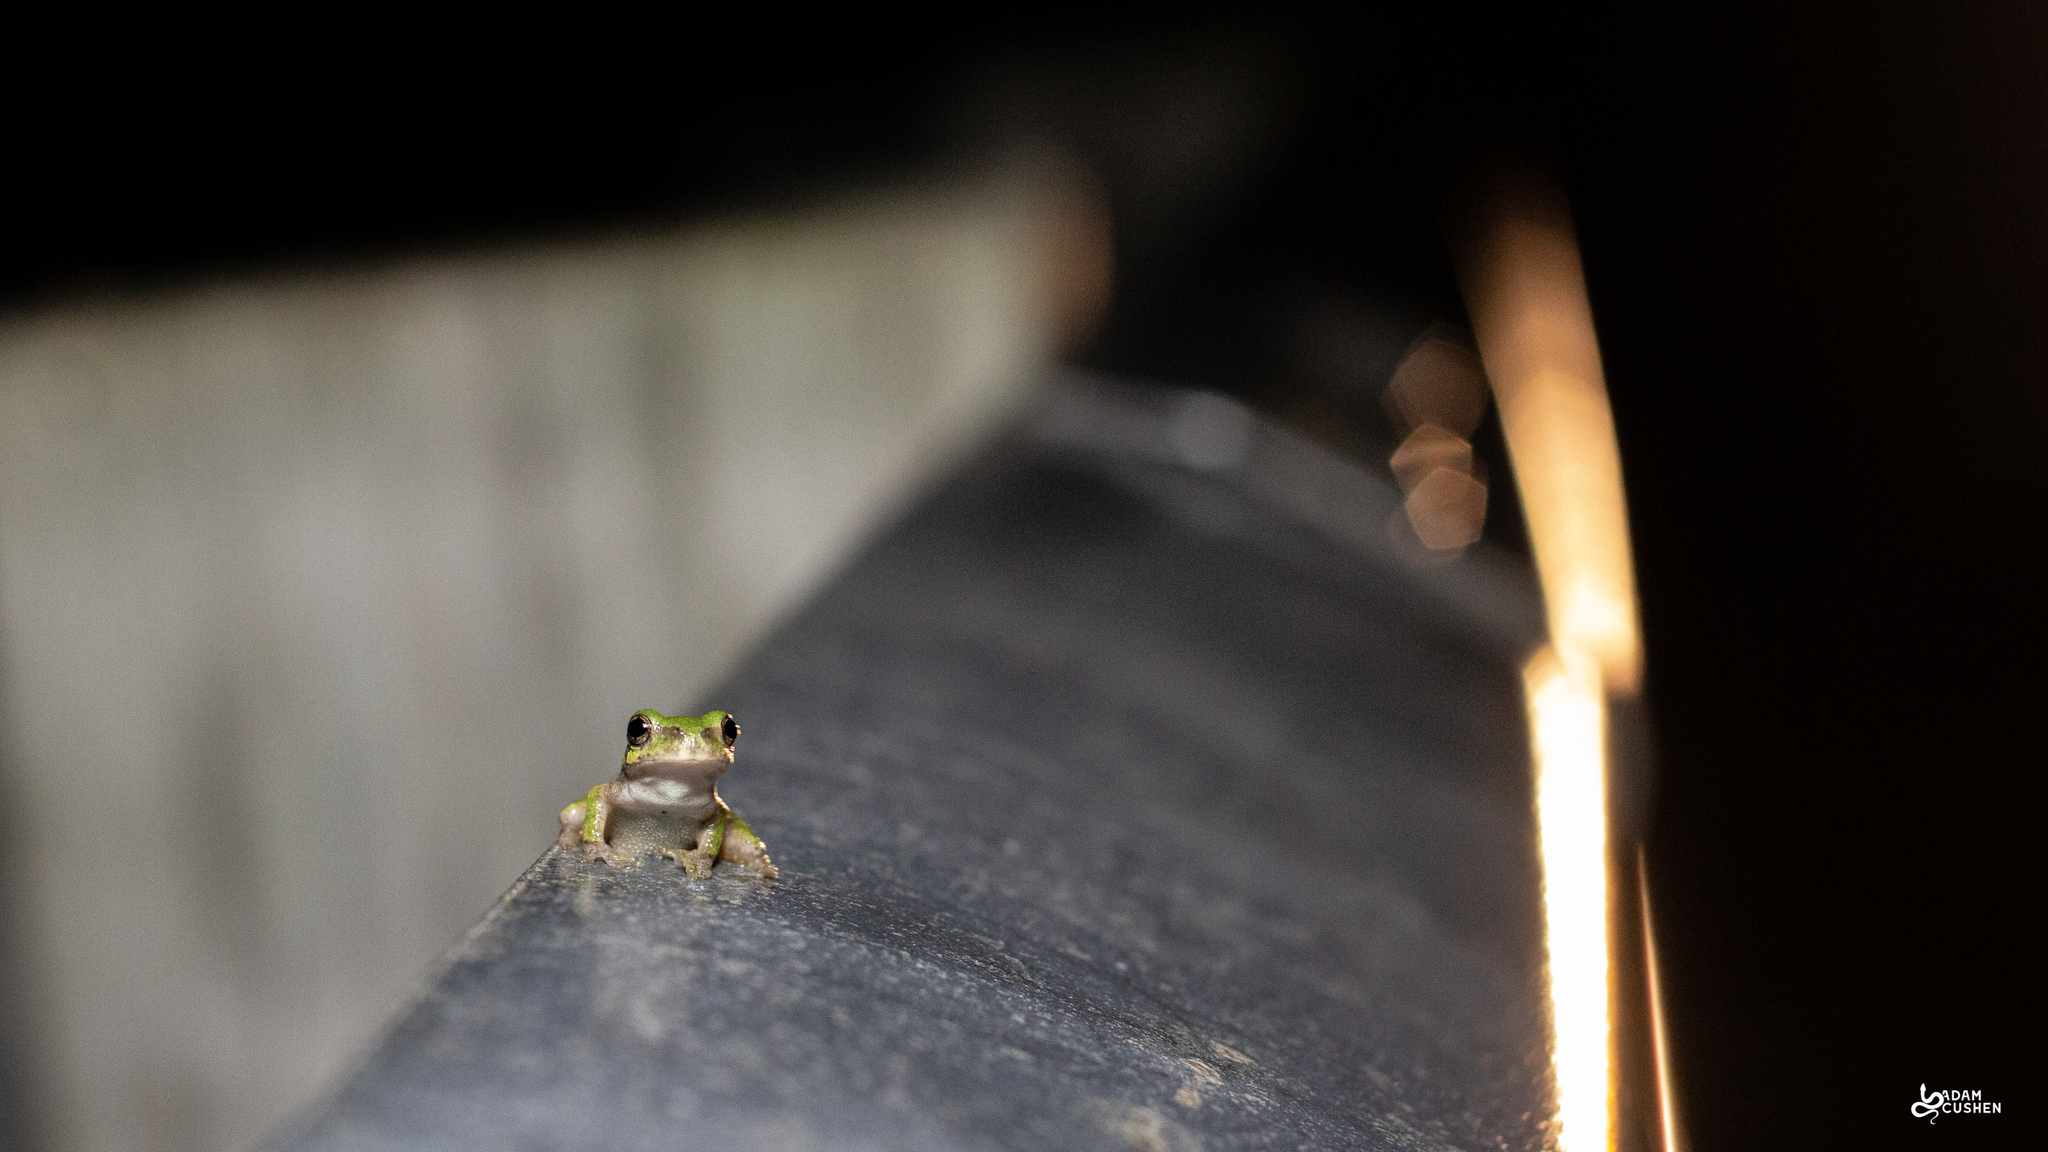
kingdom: Animalia
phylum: Chordata
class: Amphibia
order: Anura
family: Hylidae
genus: Dryophytes
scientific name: Dryophytes versicolor
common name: Gray treefrog
